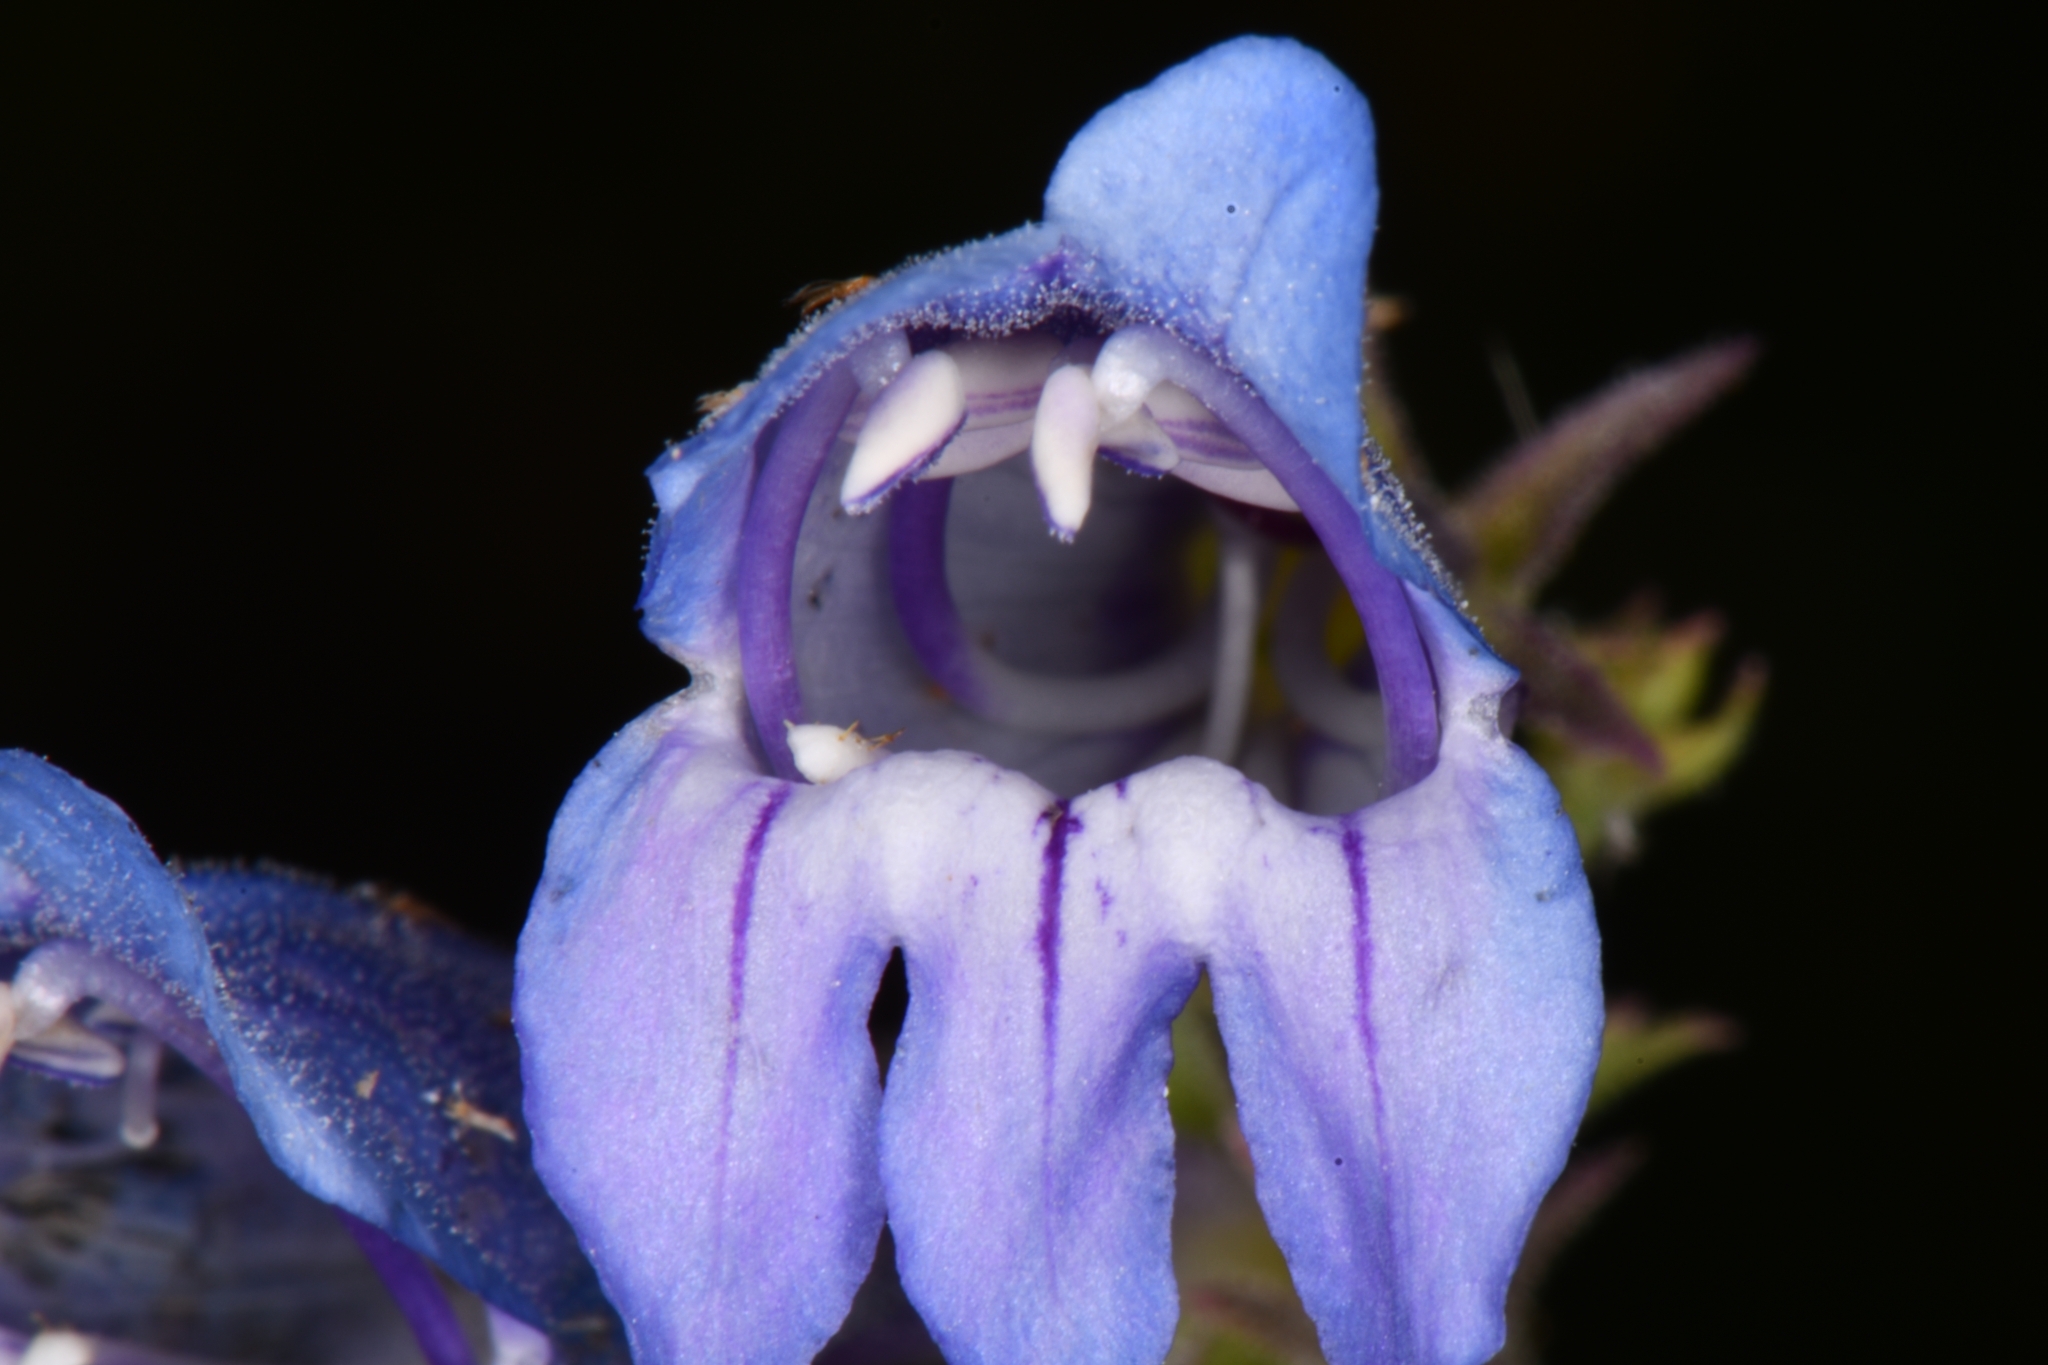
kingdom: Plantae
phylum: Tracheophyta
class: Magnoliopsida
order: Lamiales
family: Plantaginaceae
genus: Penstemon
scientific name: Penstemon leiophyllus
